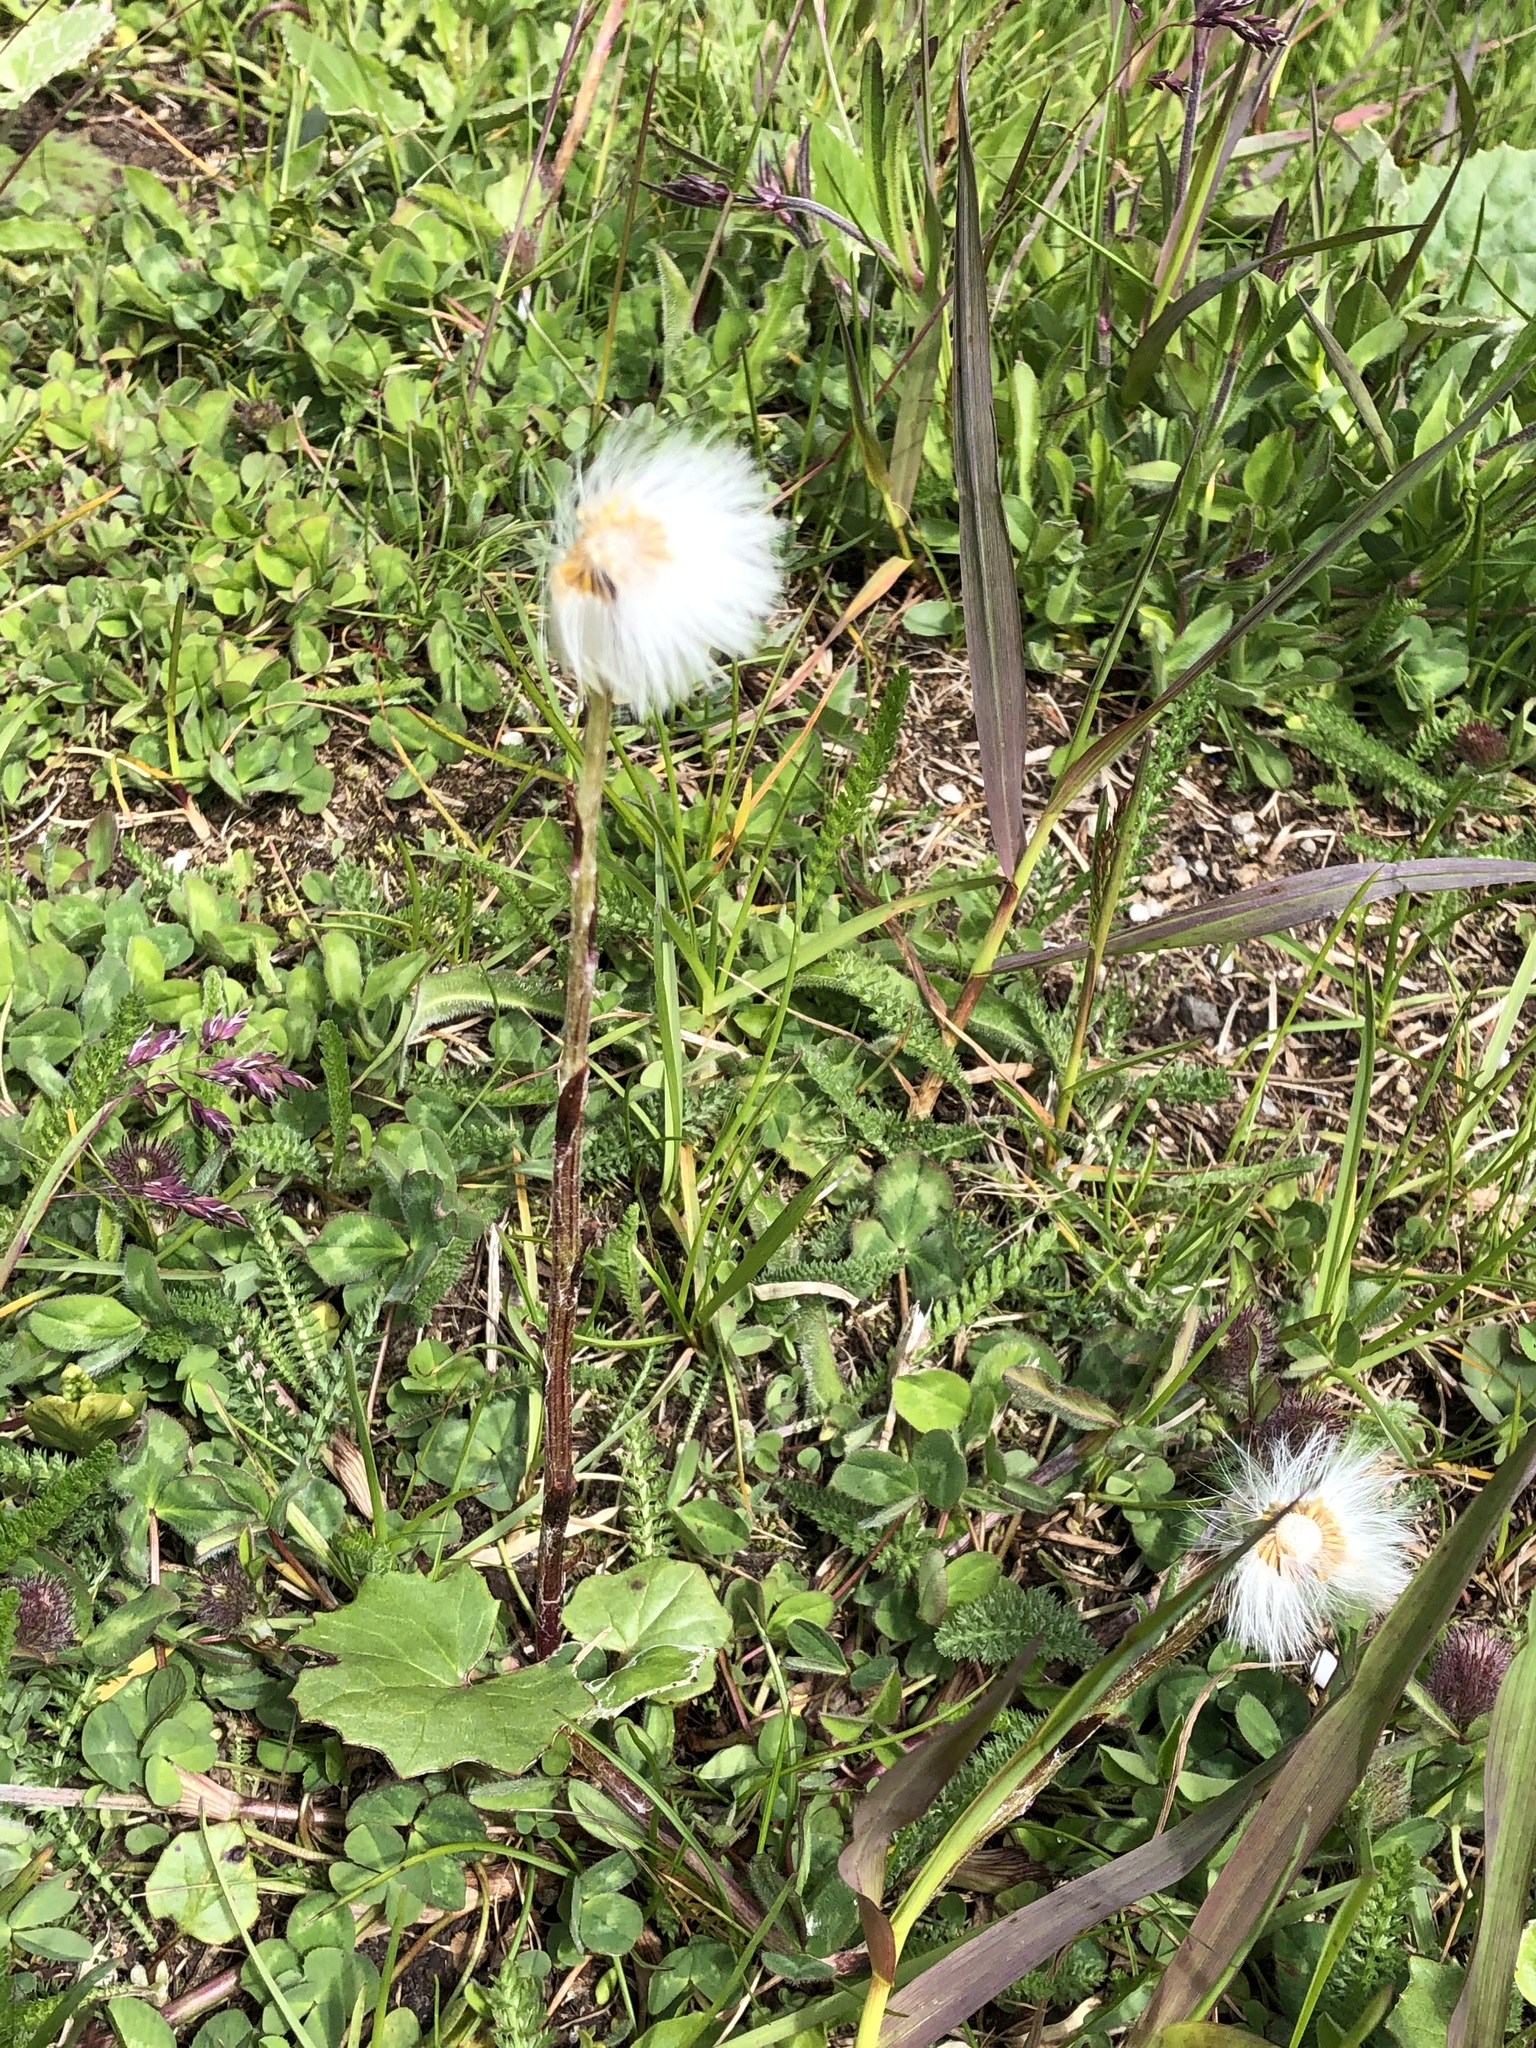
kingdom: Plantae
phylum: Tracheophyta
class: Magnoliopsida
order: Asterales
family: Asteraceae
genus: Tussilago
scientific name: Tussilago farfara
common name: Coltsfoot
